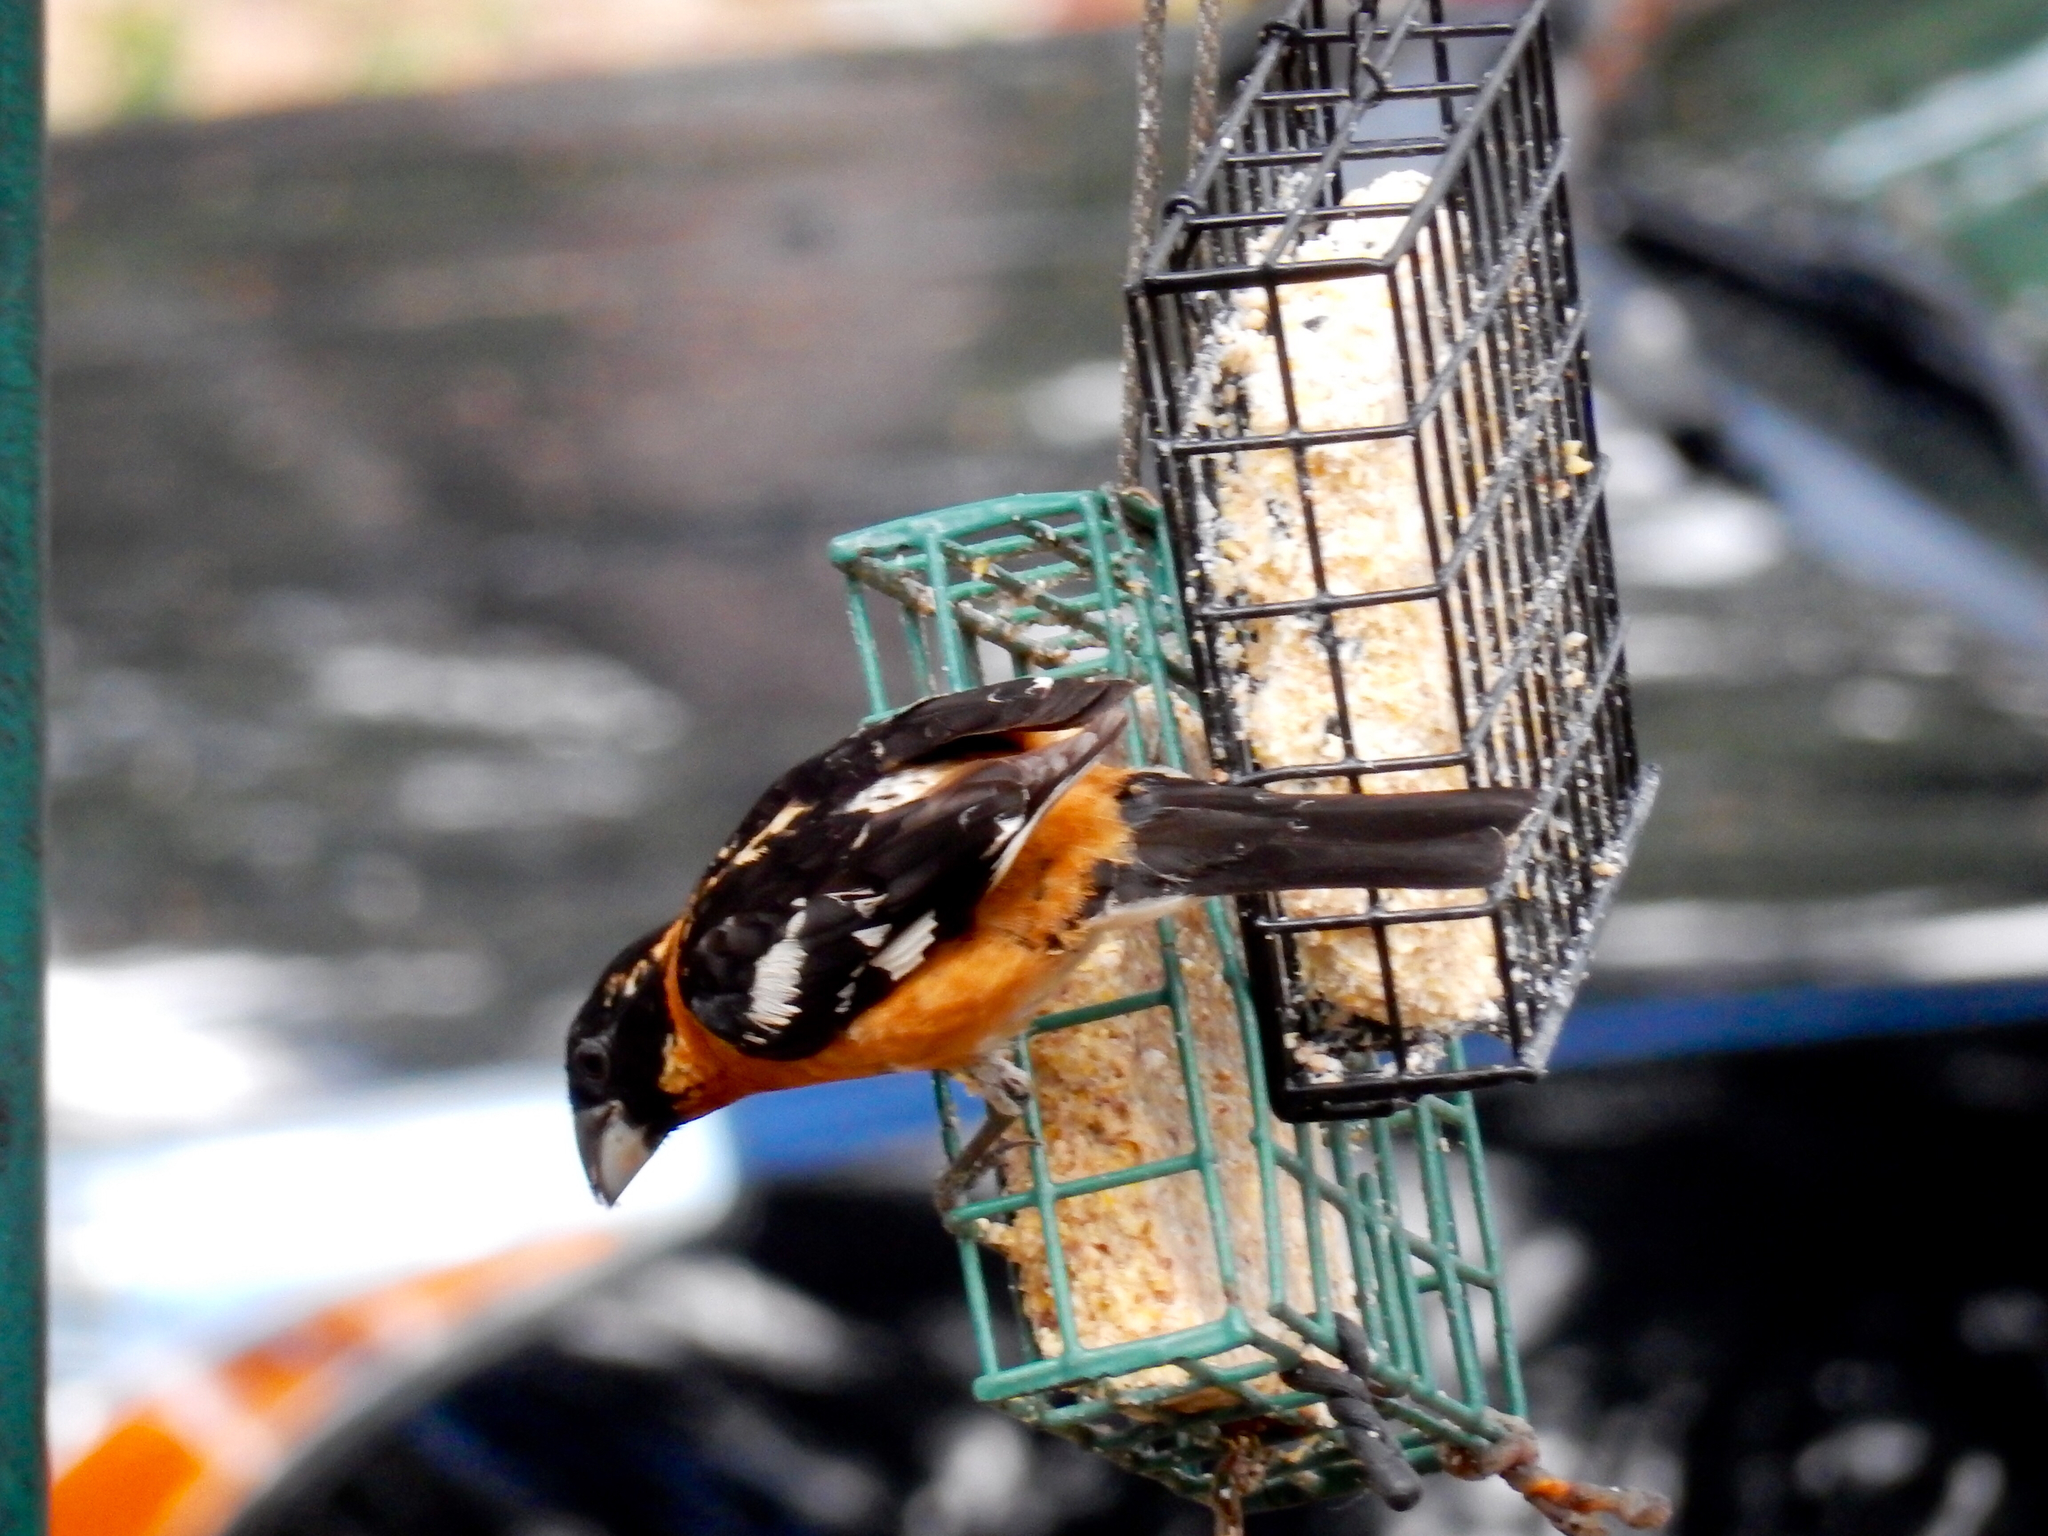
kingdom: Animalia
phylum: Chordata
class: Aves
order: Passeriformes
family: Cardinalidae
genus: Pheucticus
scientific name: Pheucticus melanocephalus
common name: Black-headed grosbeak
